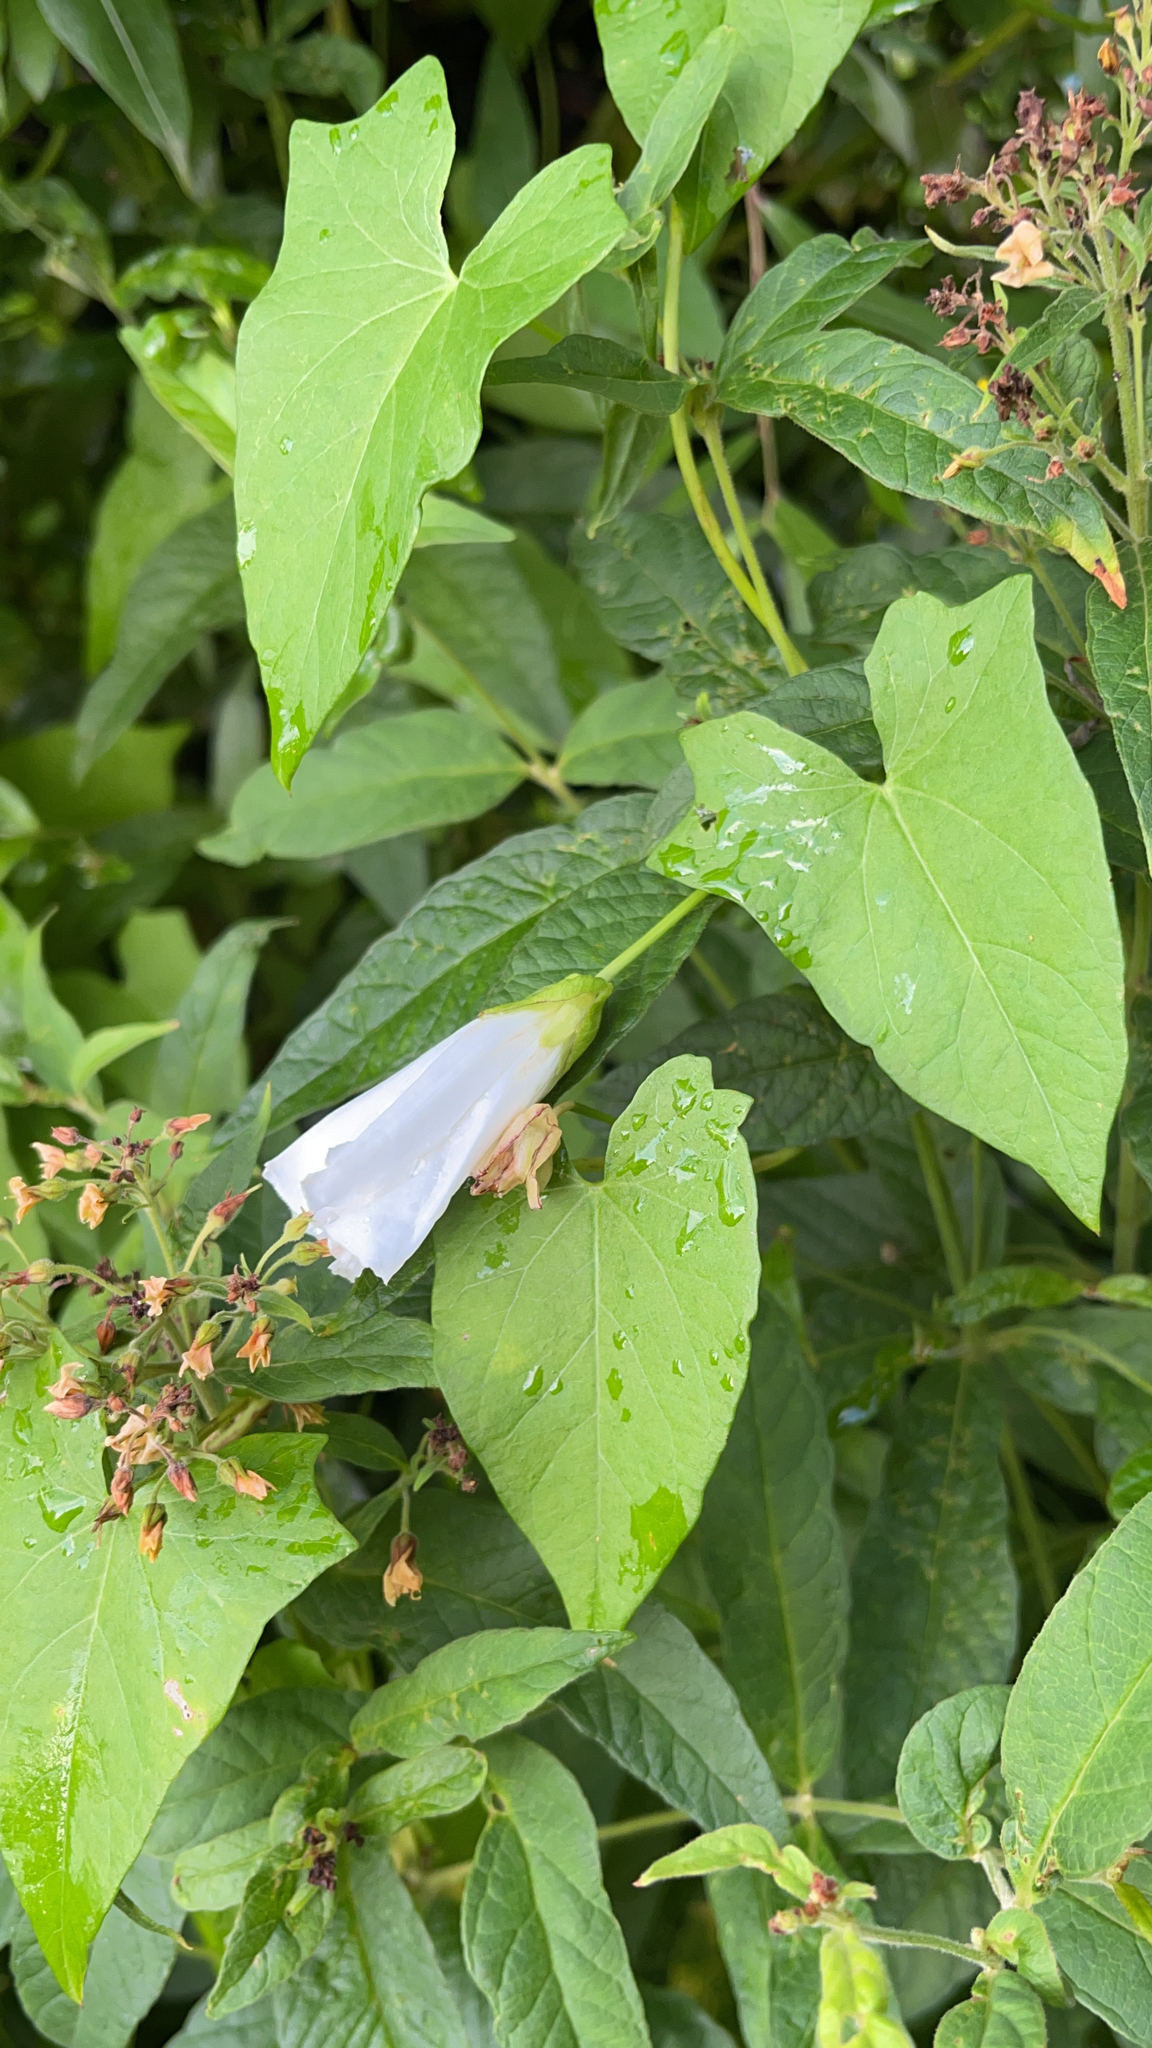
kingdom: Plantae
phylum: Tracheophyta
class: Magnoliopsida
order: Solanales
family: Convolvulaceae
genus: Calystegia
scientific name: Calystegia sepium
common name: Hedge bindweed
